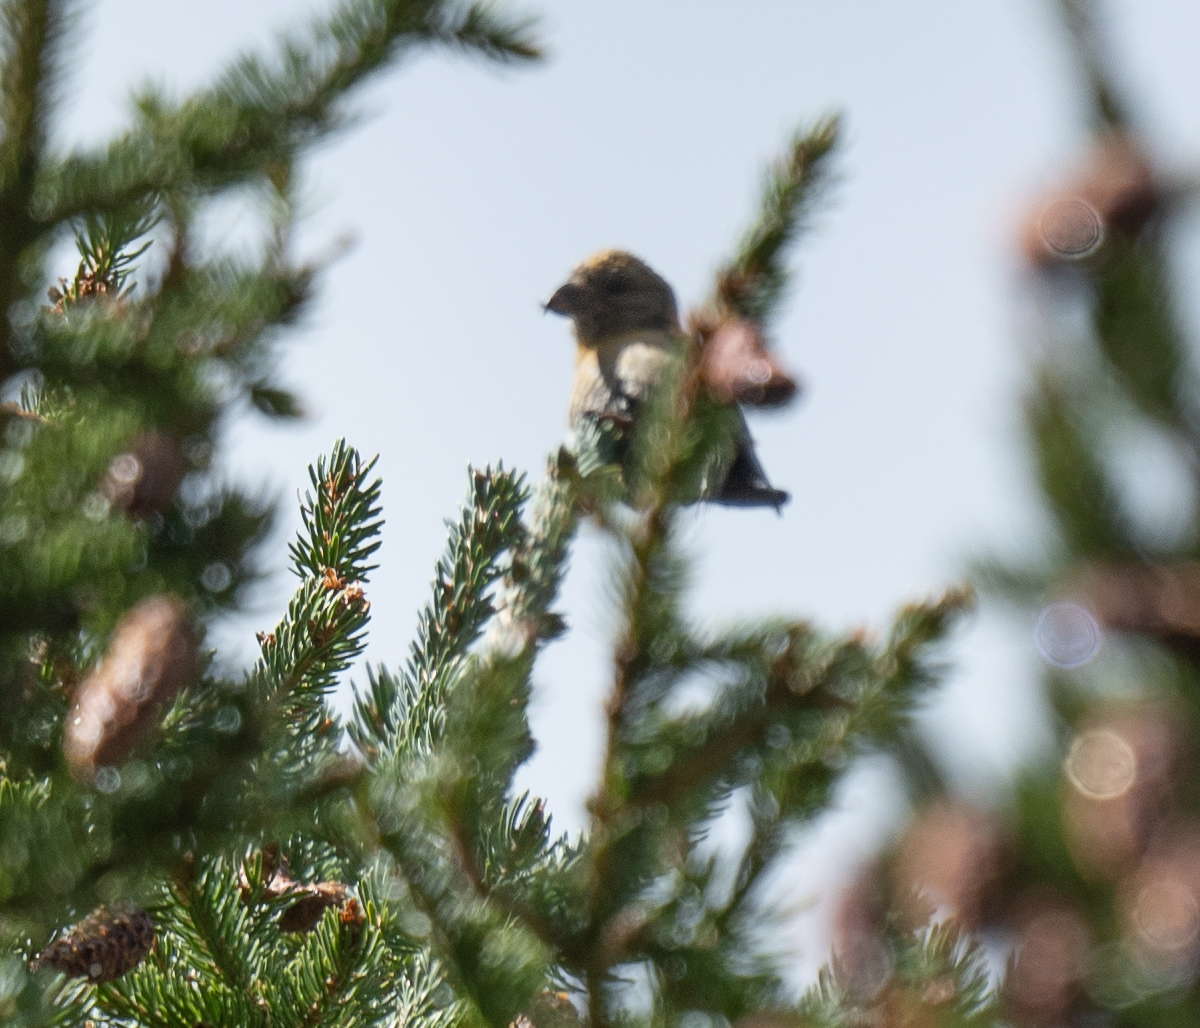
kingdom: Animalia
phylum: Chordata
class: Aves
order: Passeriformes
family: Fringillidae
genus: Loxia
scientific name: Loxia curvirostra
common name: Red crossbill
